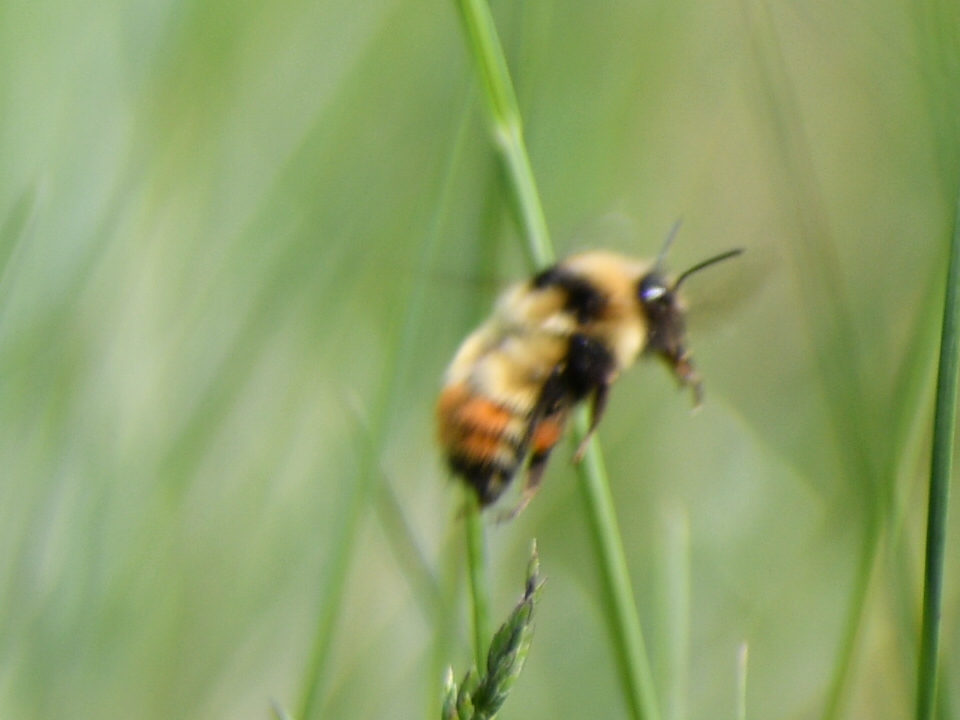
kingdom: Animalia
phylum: Arthropoda
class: Insecta
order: Hymenoptera
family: Apidae
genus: Bombus
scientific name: Bombus centralis
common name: Central bumble bee
